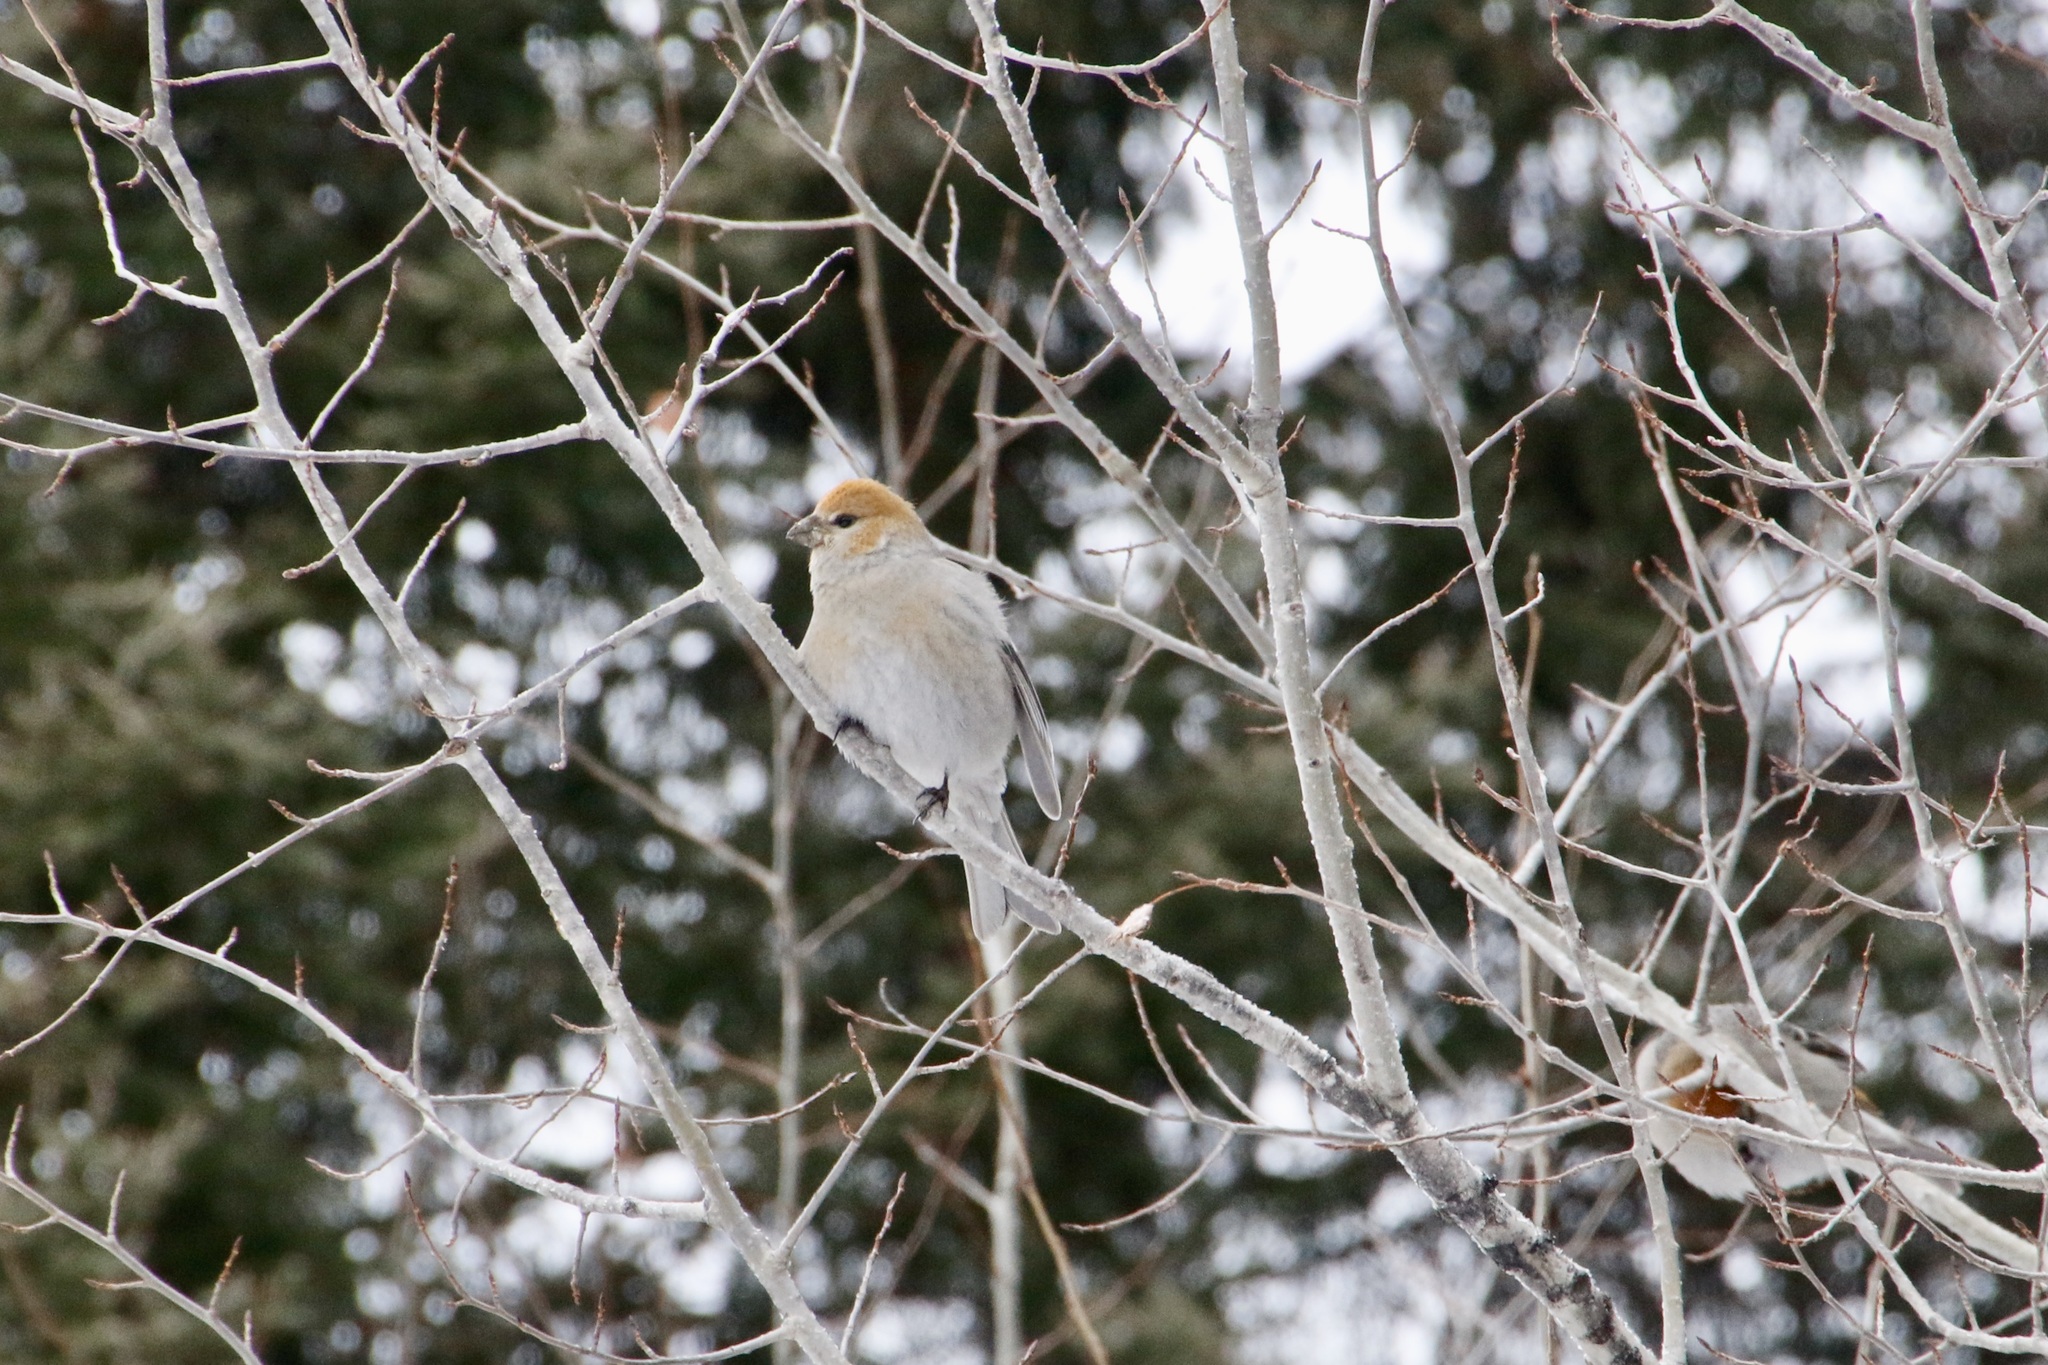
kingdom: Animalia
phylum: Chordata
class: Aves
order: Passeriformes
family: Fringillidae
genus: Pinicola
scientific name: Pinicola enucleator
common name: Pine grosbeak
